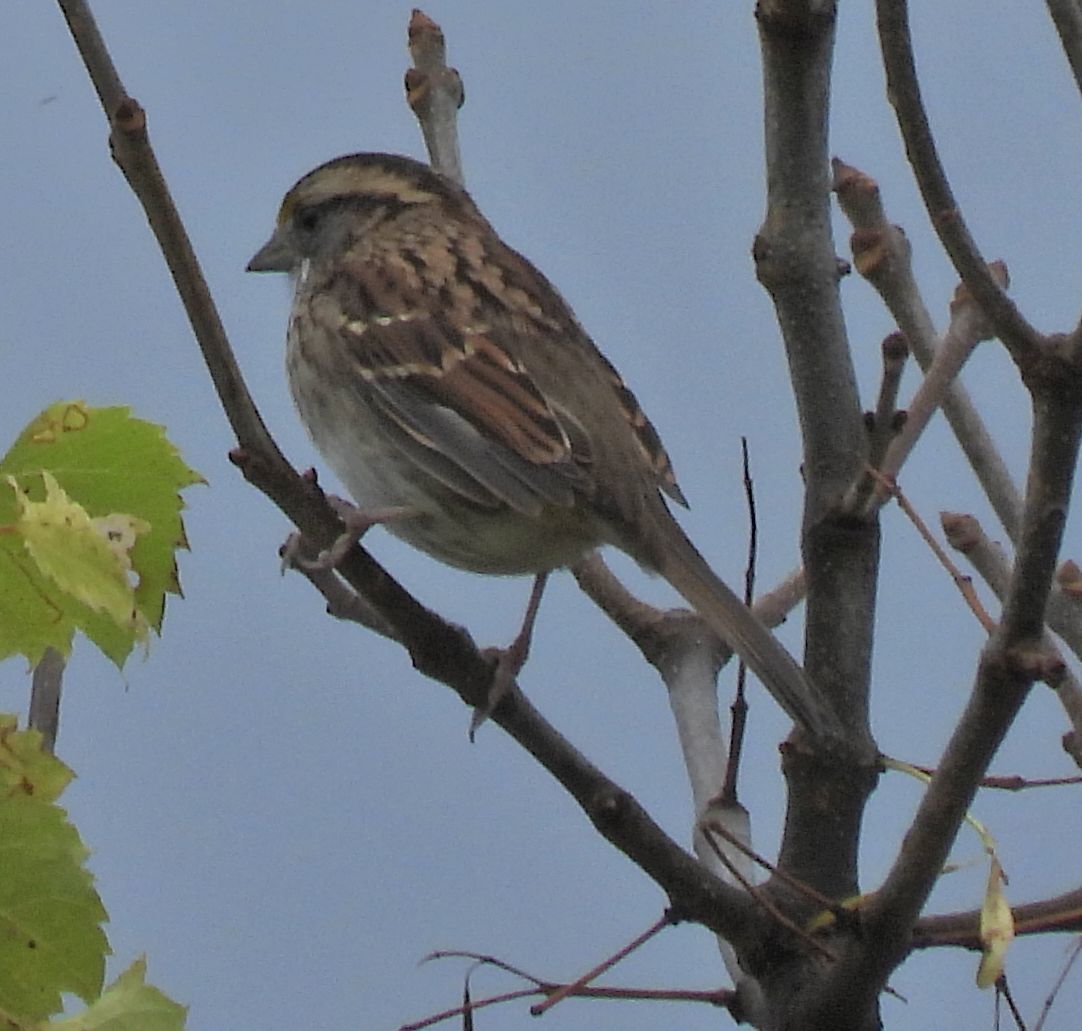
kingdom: Animalia
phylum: Chordata
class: Aves
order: Passeriformes
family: Passerellidae
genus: Zonotrichia
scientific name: Zonotrichia albicollis
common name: White-throated sparrow
